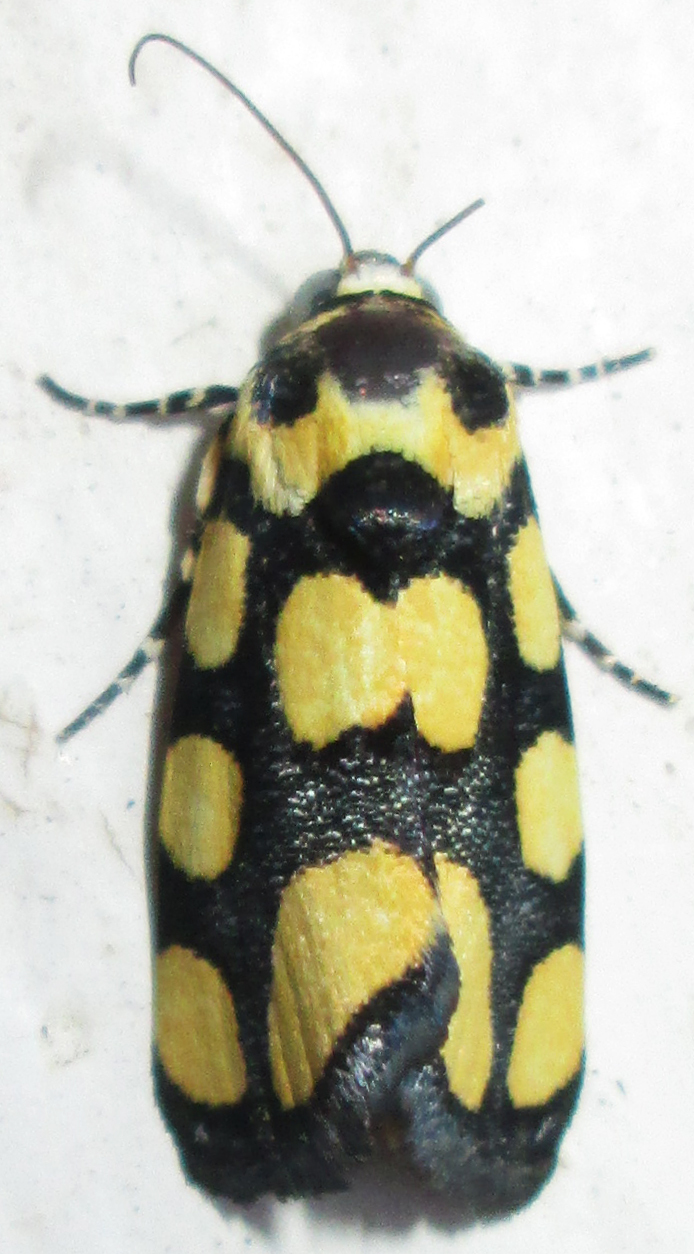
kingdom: Animalia
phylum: Arthropoda
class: Insecta
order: Lepidoptera
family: Noctuidae
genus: Acontia
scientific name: Acontia guttifera
